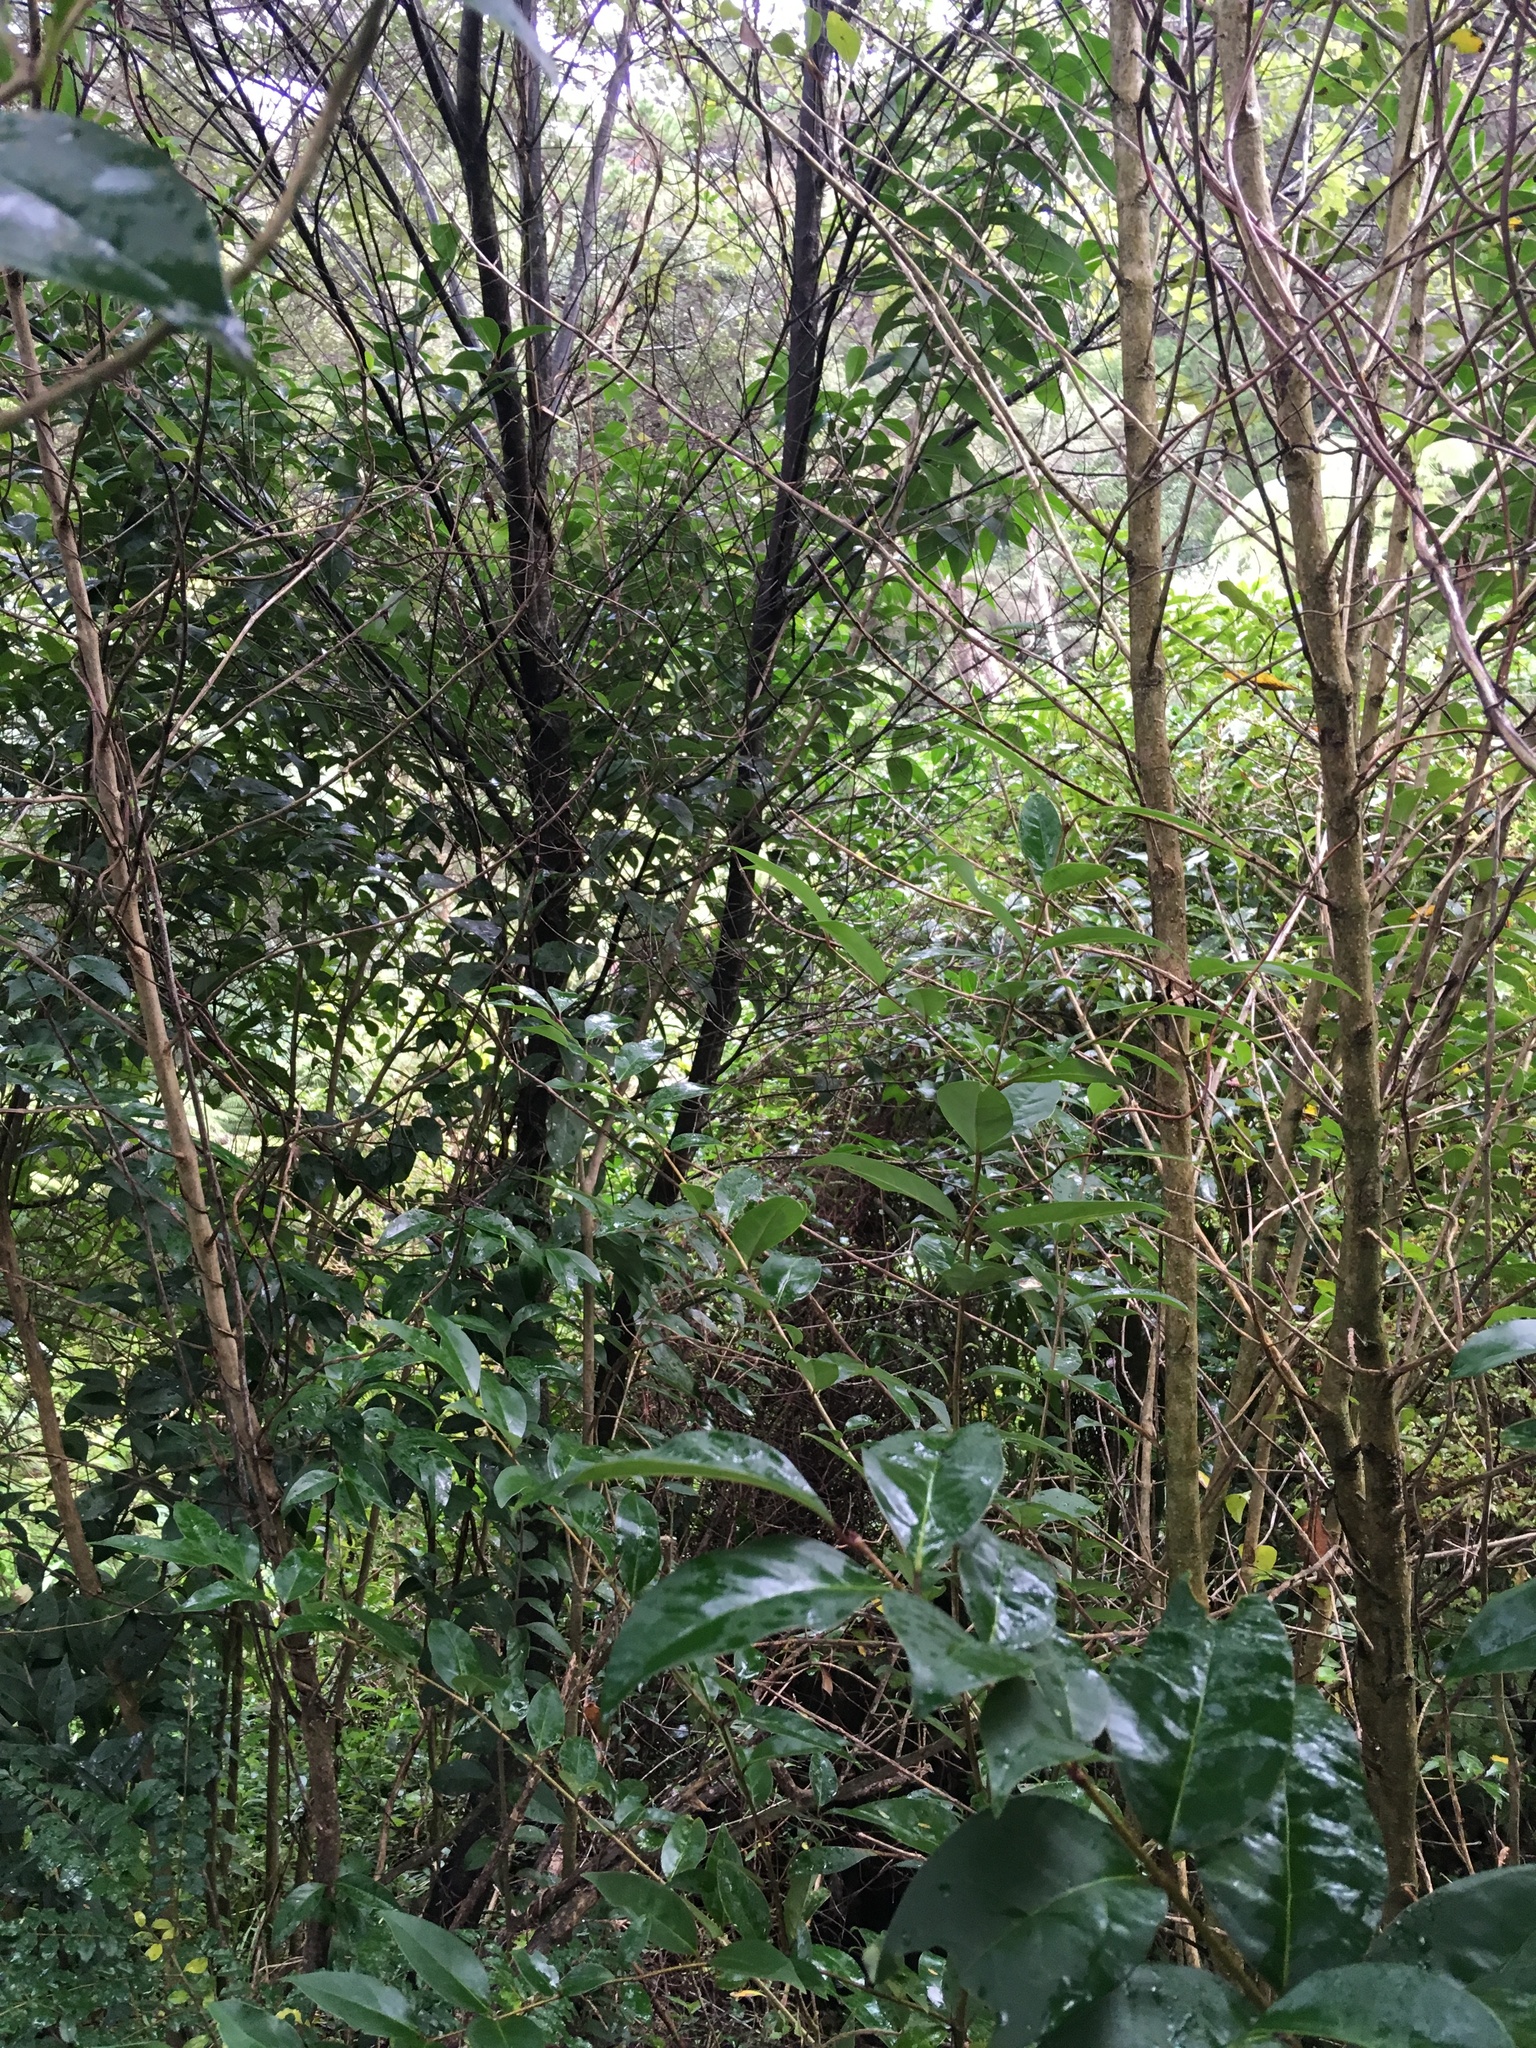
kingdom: Plantae
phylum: Tracheophyta
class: Magnoliopsida
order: Lamiales
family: Oleaceae
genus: Ligustrum
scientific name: Ligustrum lucidum
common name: Glossy privet
